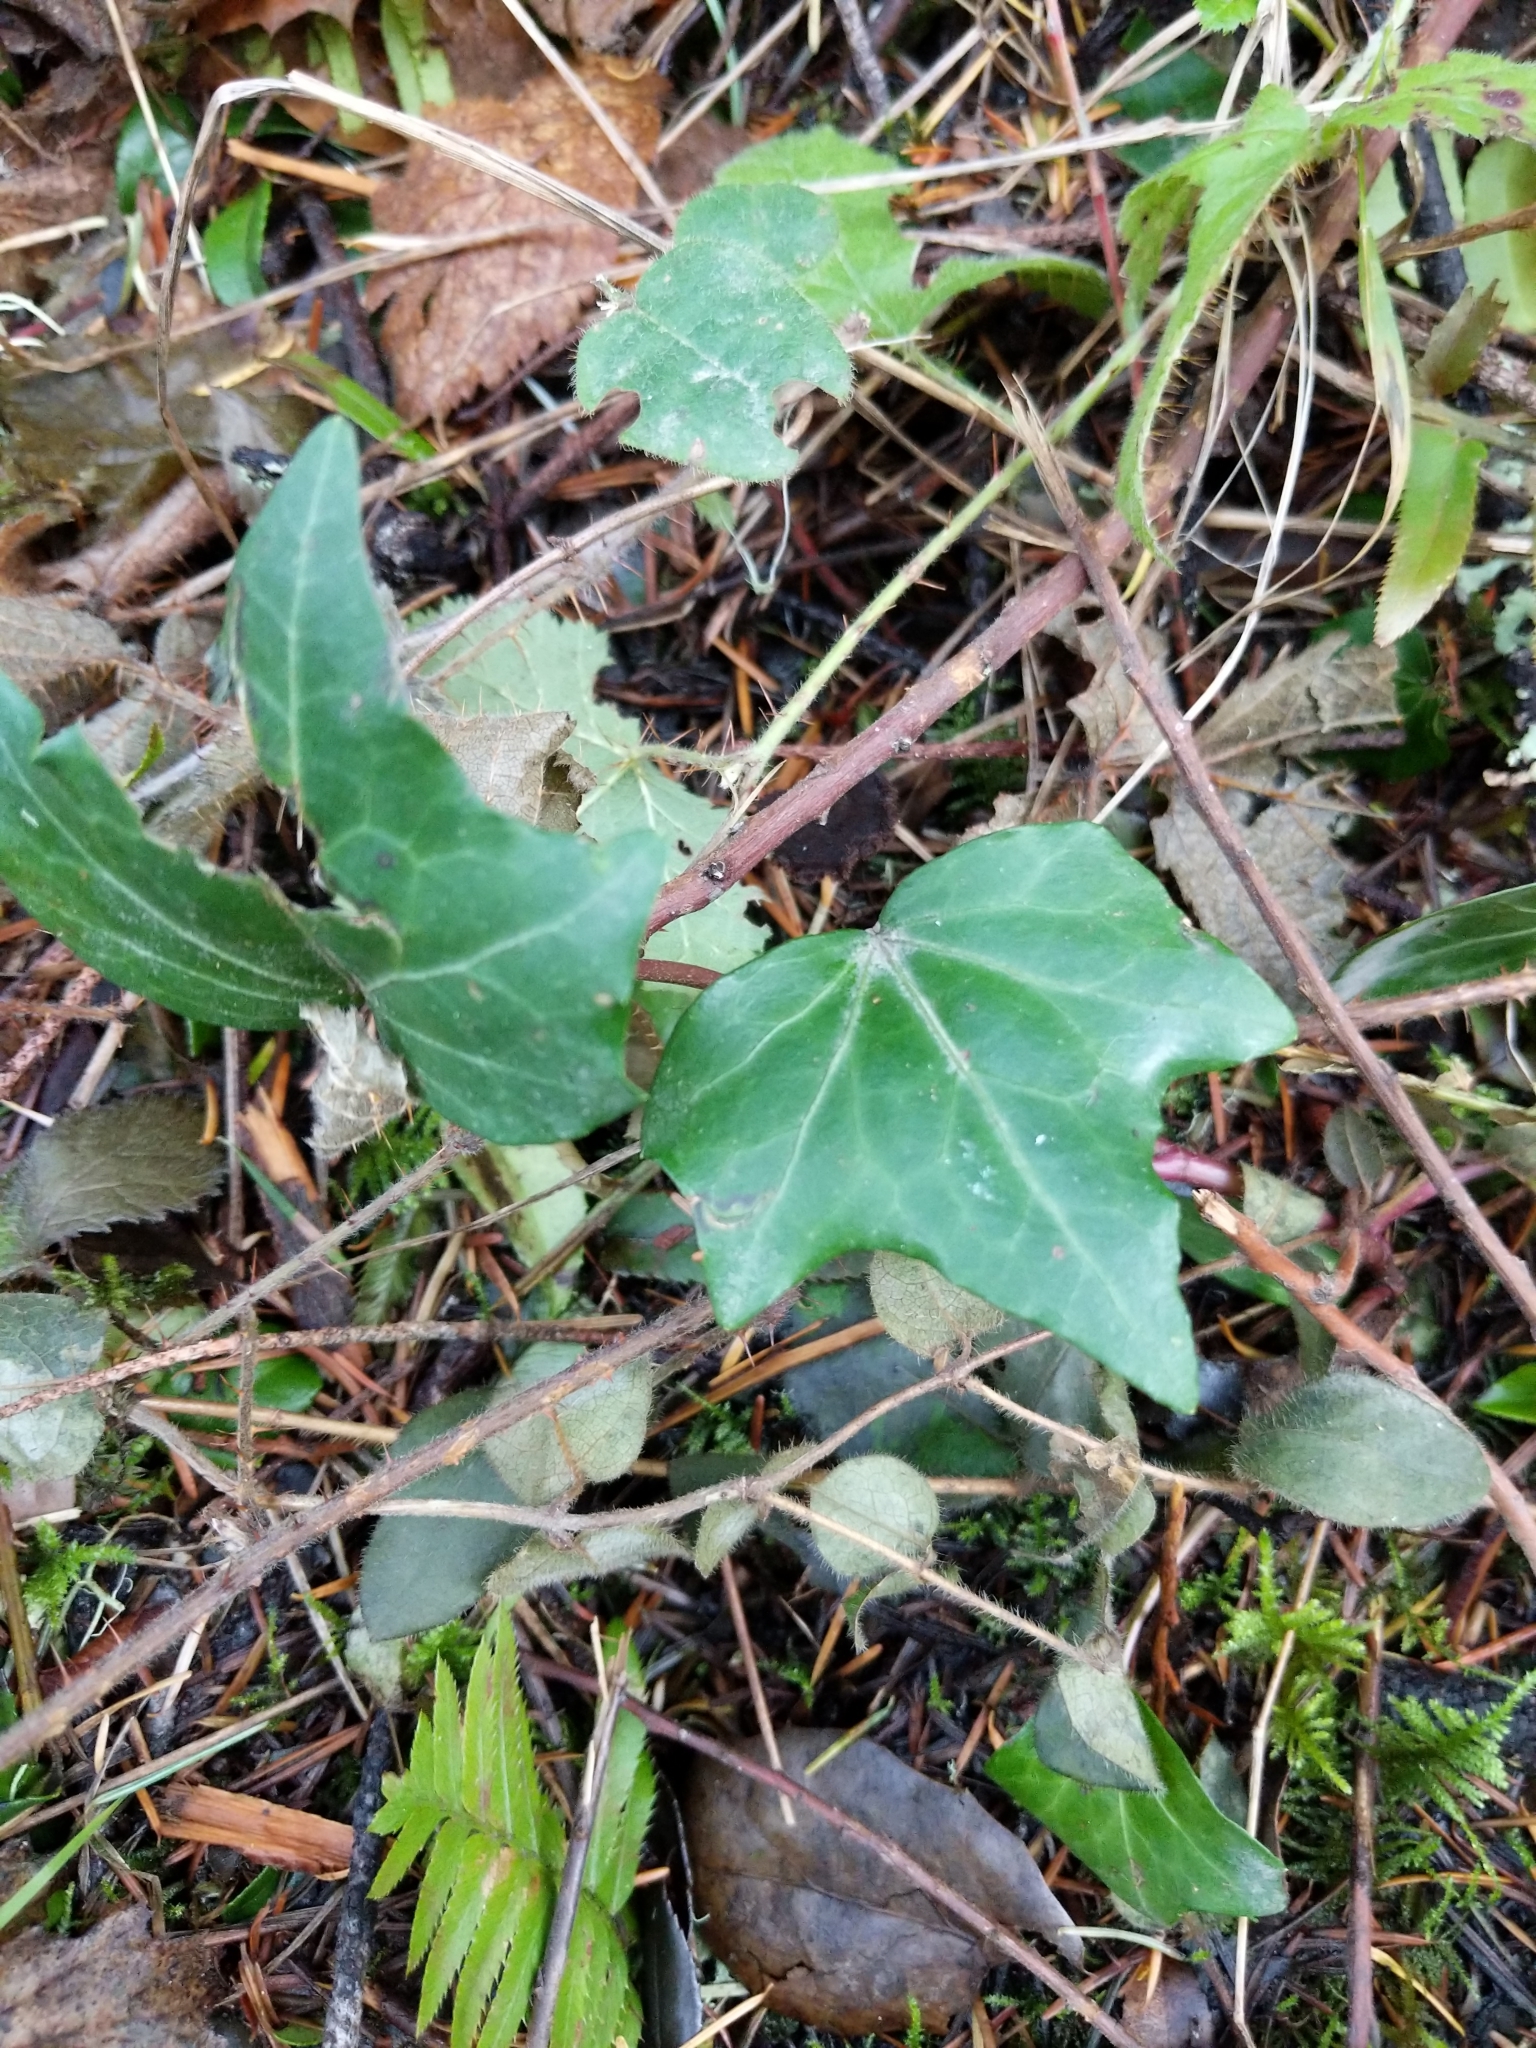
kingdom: Plantae
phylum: Tracheophyta
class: Magnoliopsida
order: Apiales
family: Araliaceae
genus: Hedera
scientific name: Hedera helix
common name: Ivy
